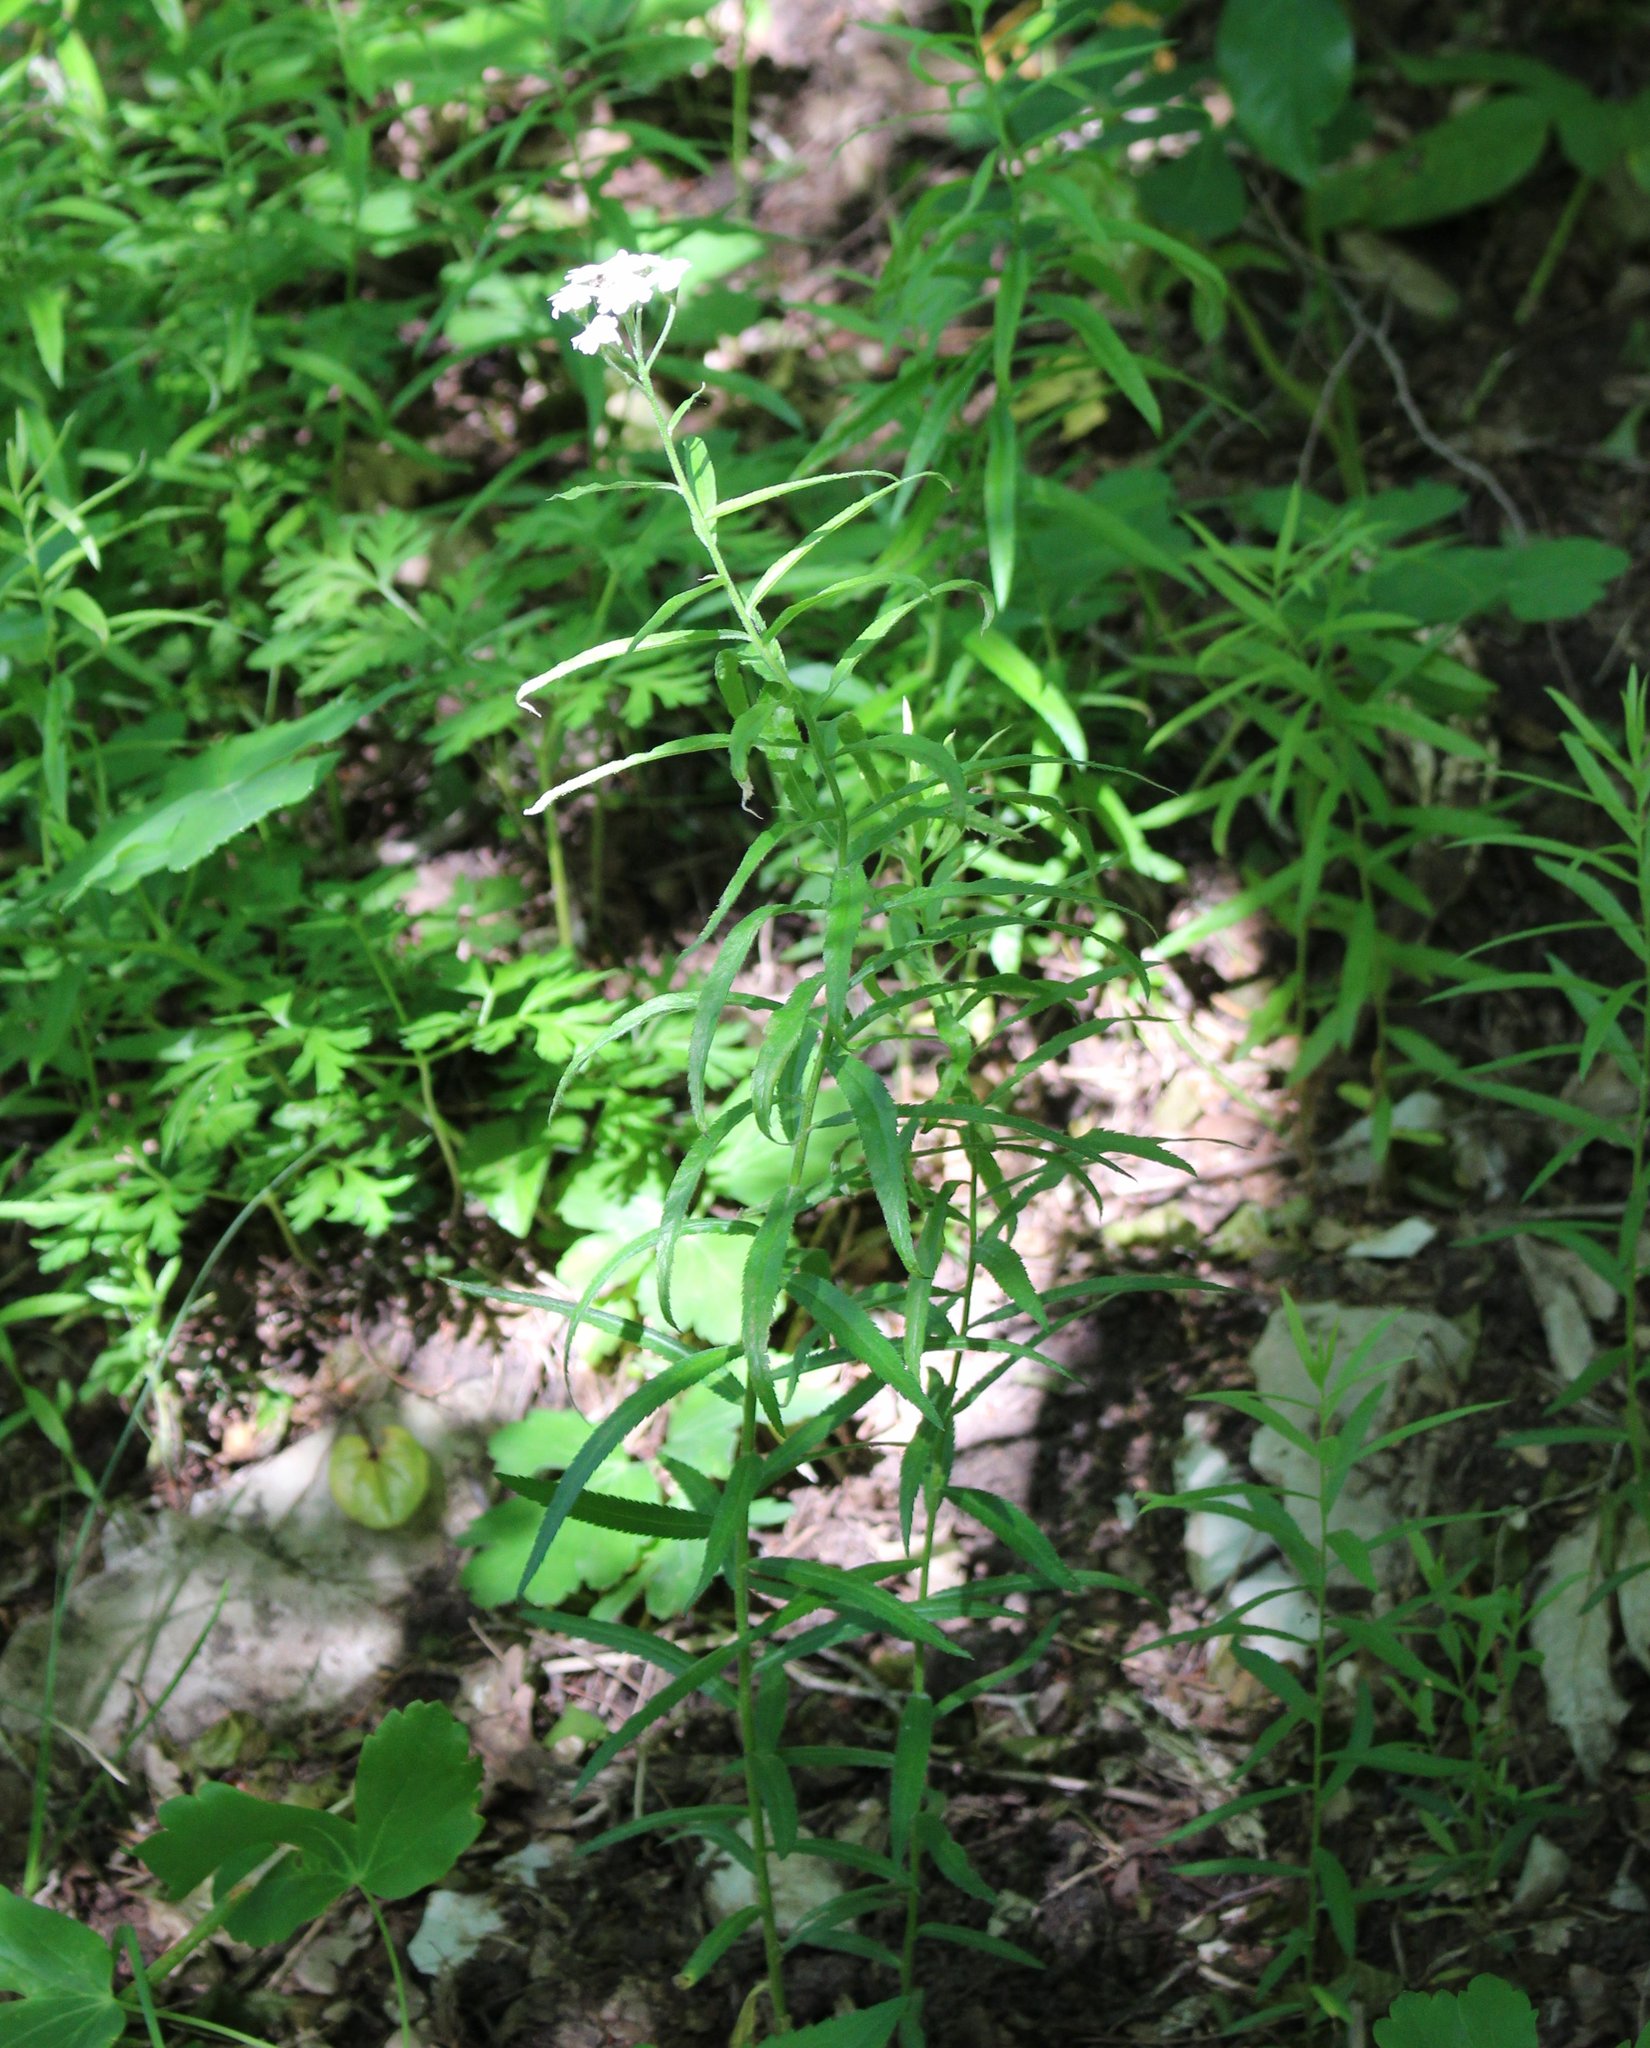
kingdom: Plantae
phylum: Tracheophyta
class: Magnoliopsida
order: Asterales
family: Asteraceae
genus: Achillea
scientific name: Achillea biserrata
